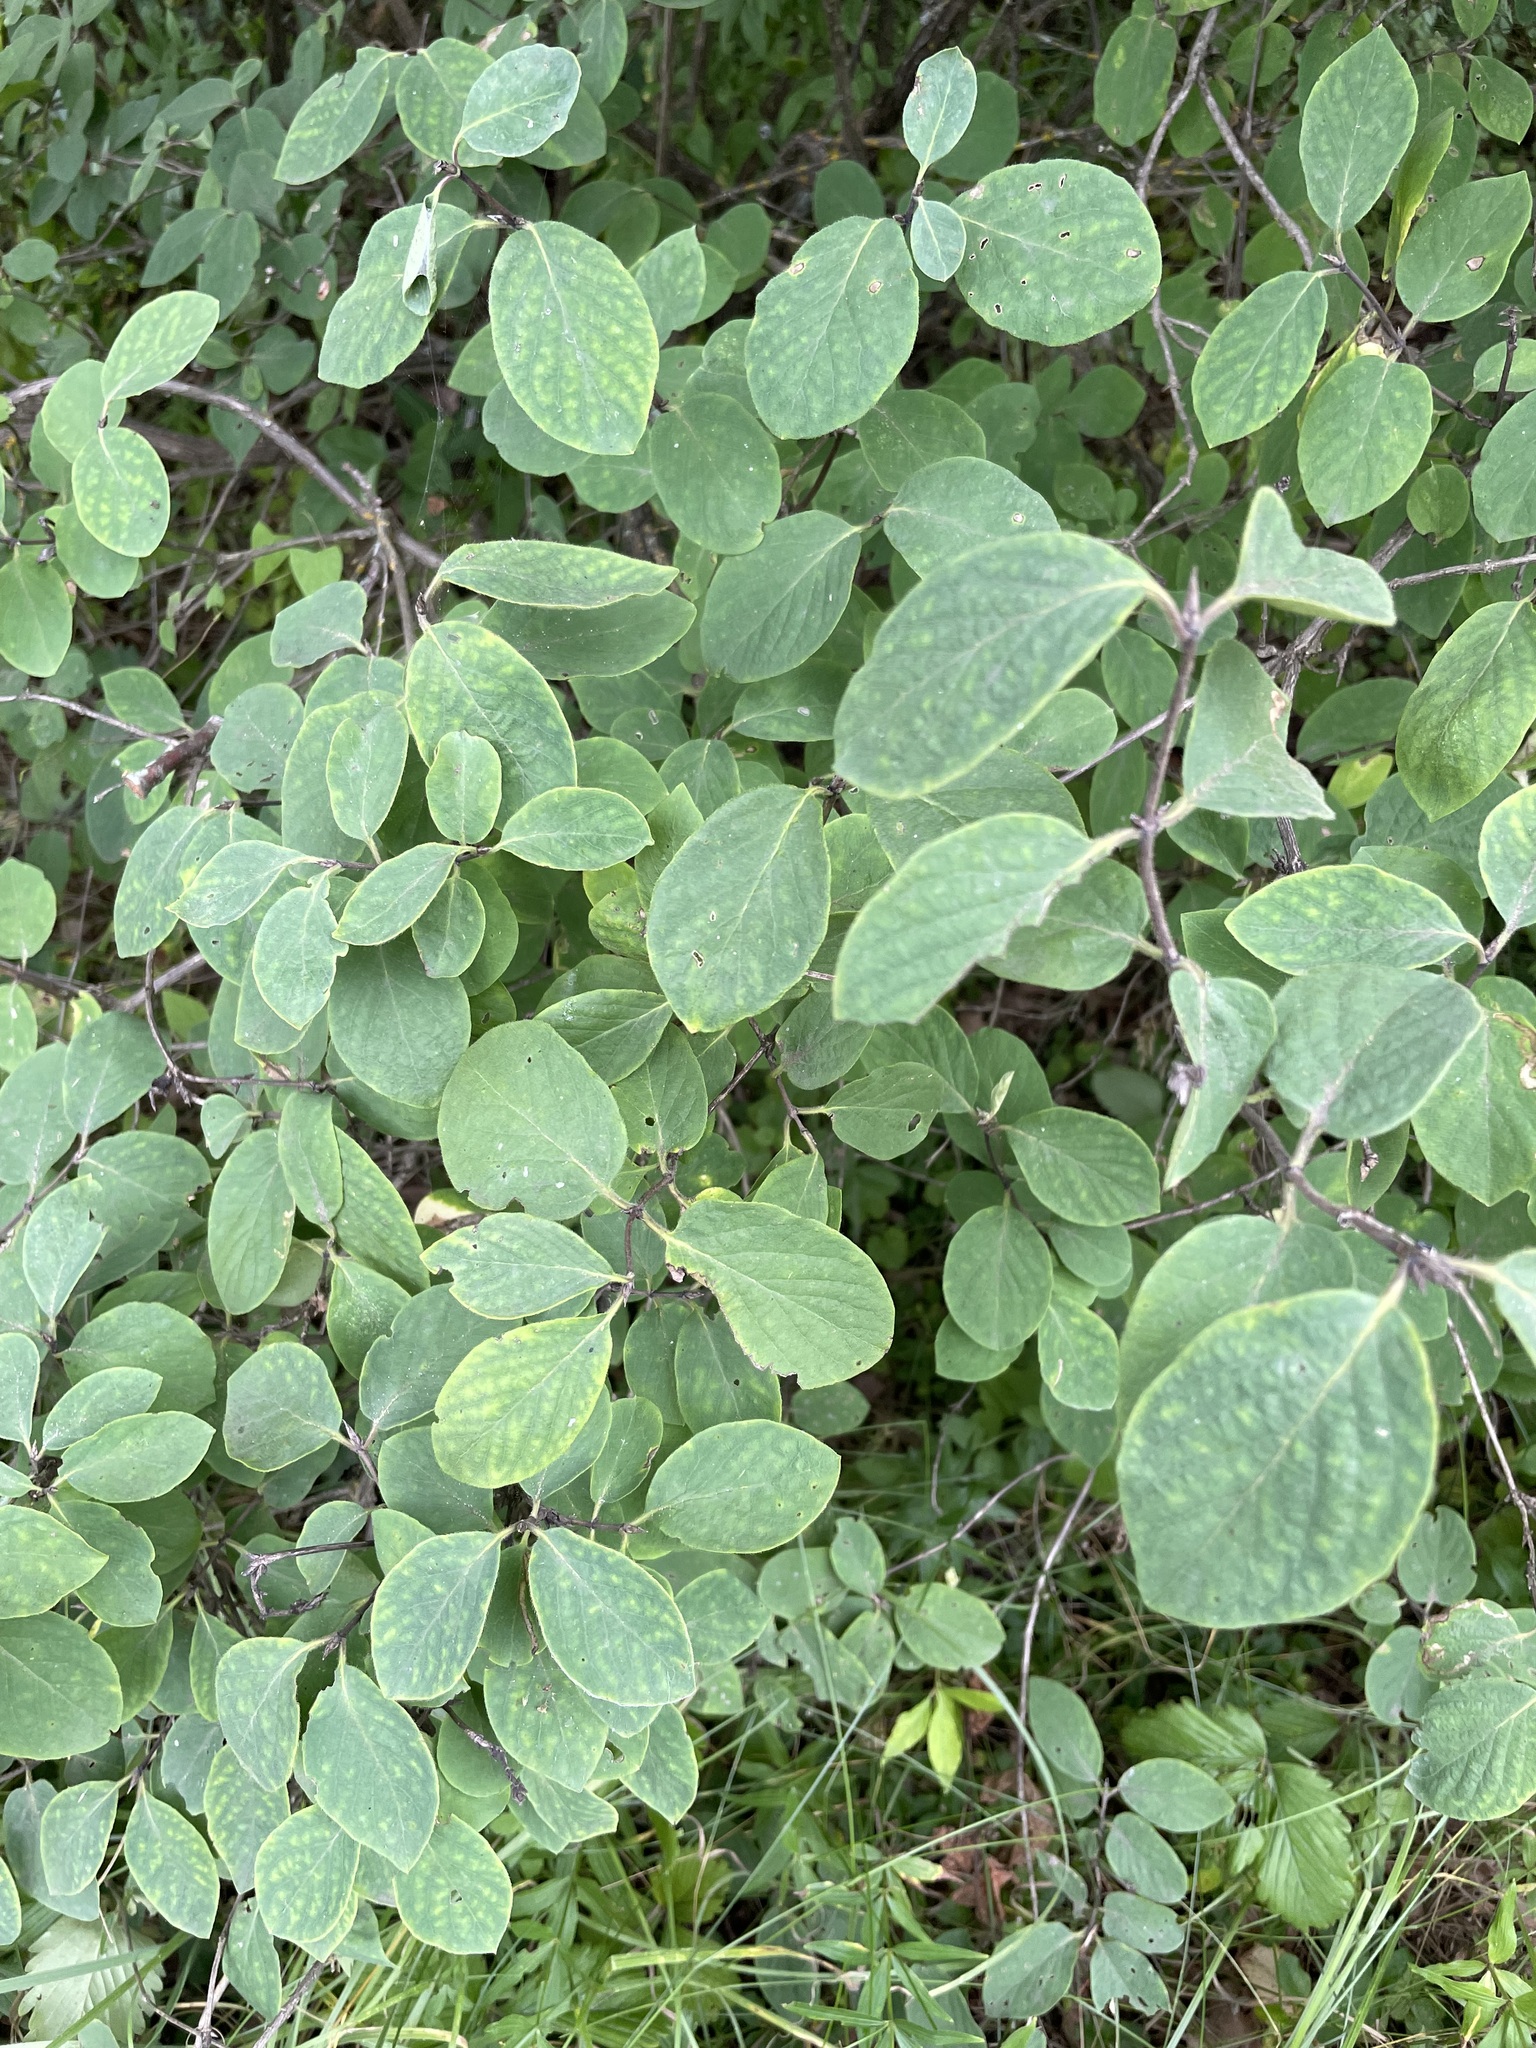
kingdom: Plantae
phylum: Tracheophyta
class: Magnoliopsida
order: Dipsacales
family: Caprifoliaceae
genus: Lonicera
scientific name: Lonicera xylosteum
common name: Fly honeysuckle
